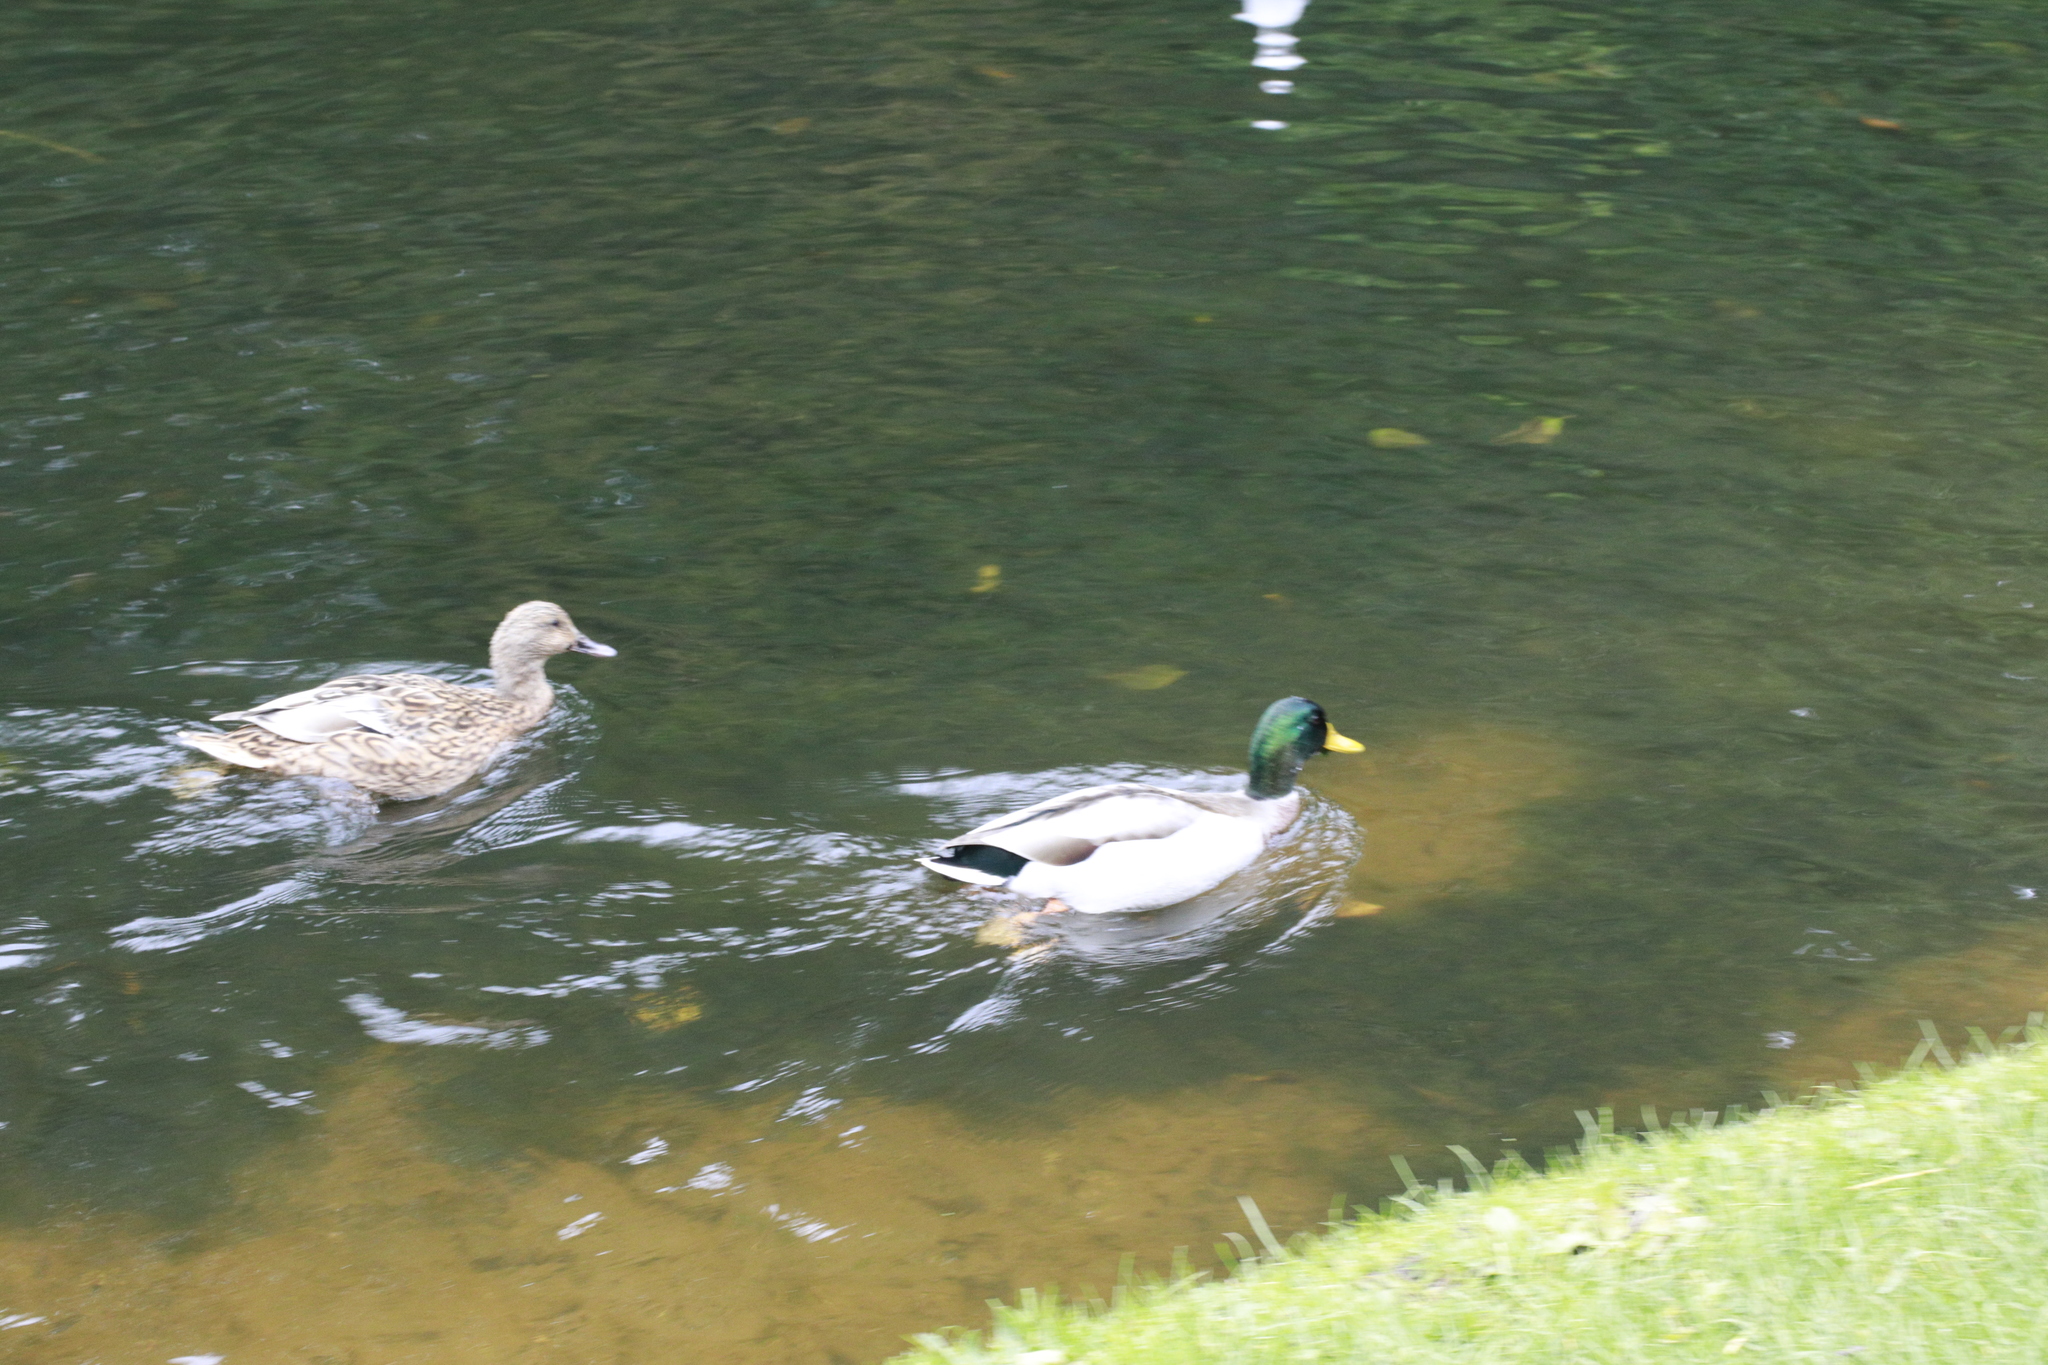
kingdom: Animalia
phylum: Chordata
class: Aves
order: Anseriformes
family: Anatidae
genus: Anas
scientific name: Anas platyrhynchos
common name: Mallard
